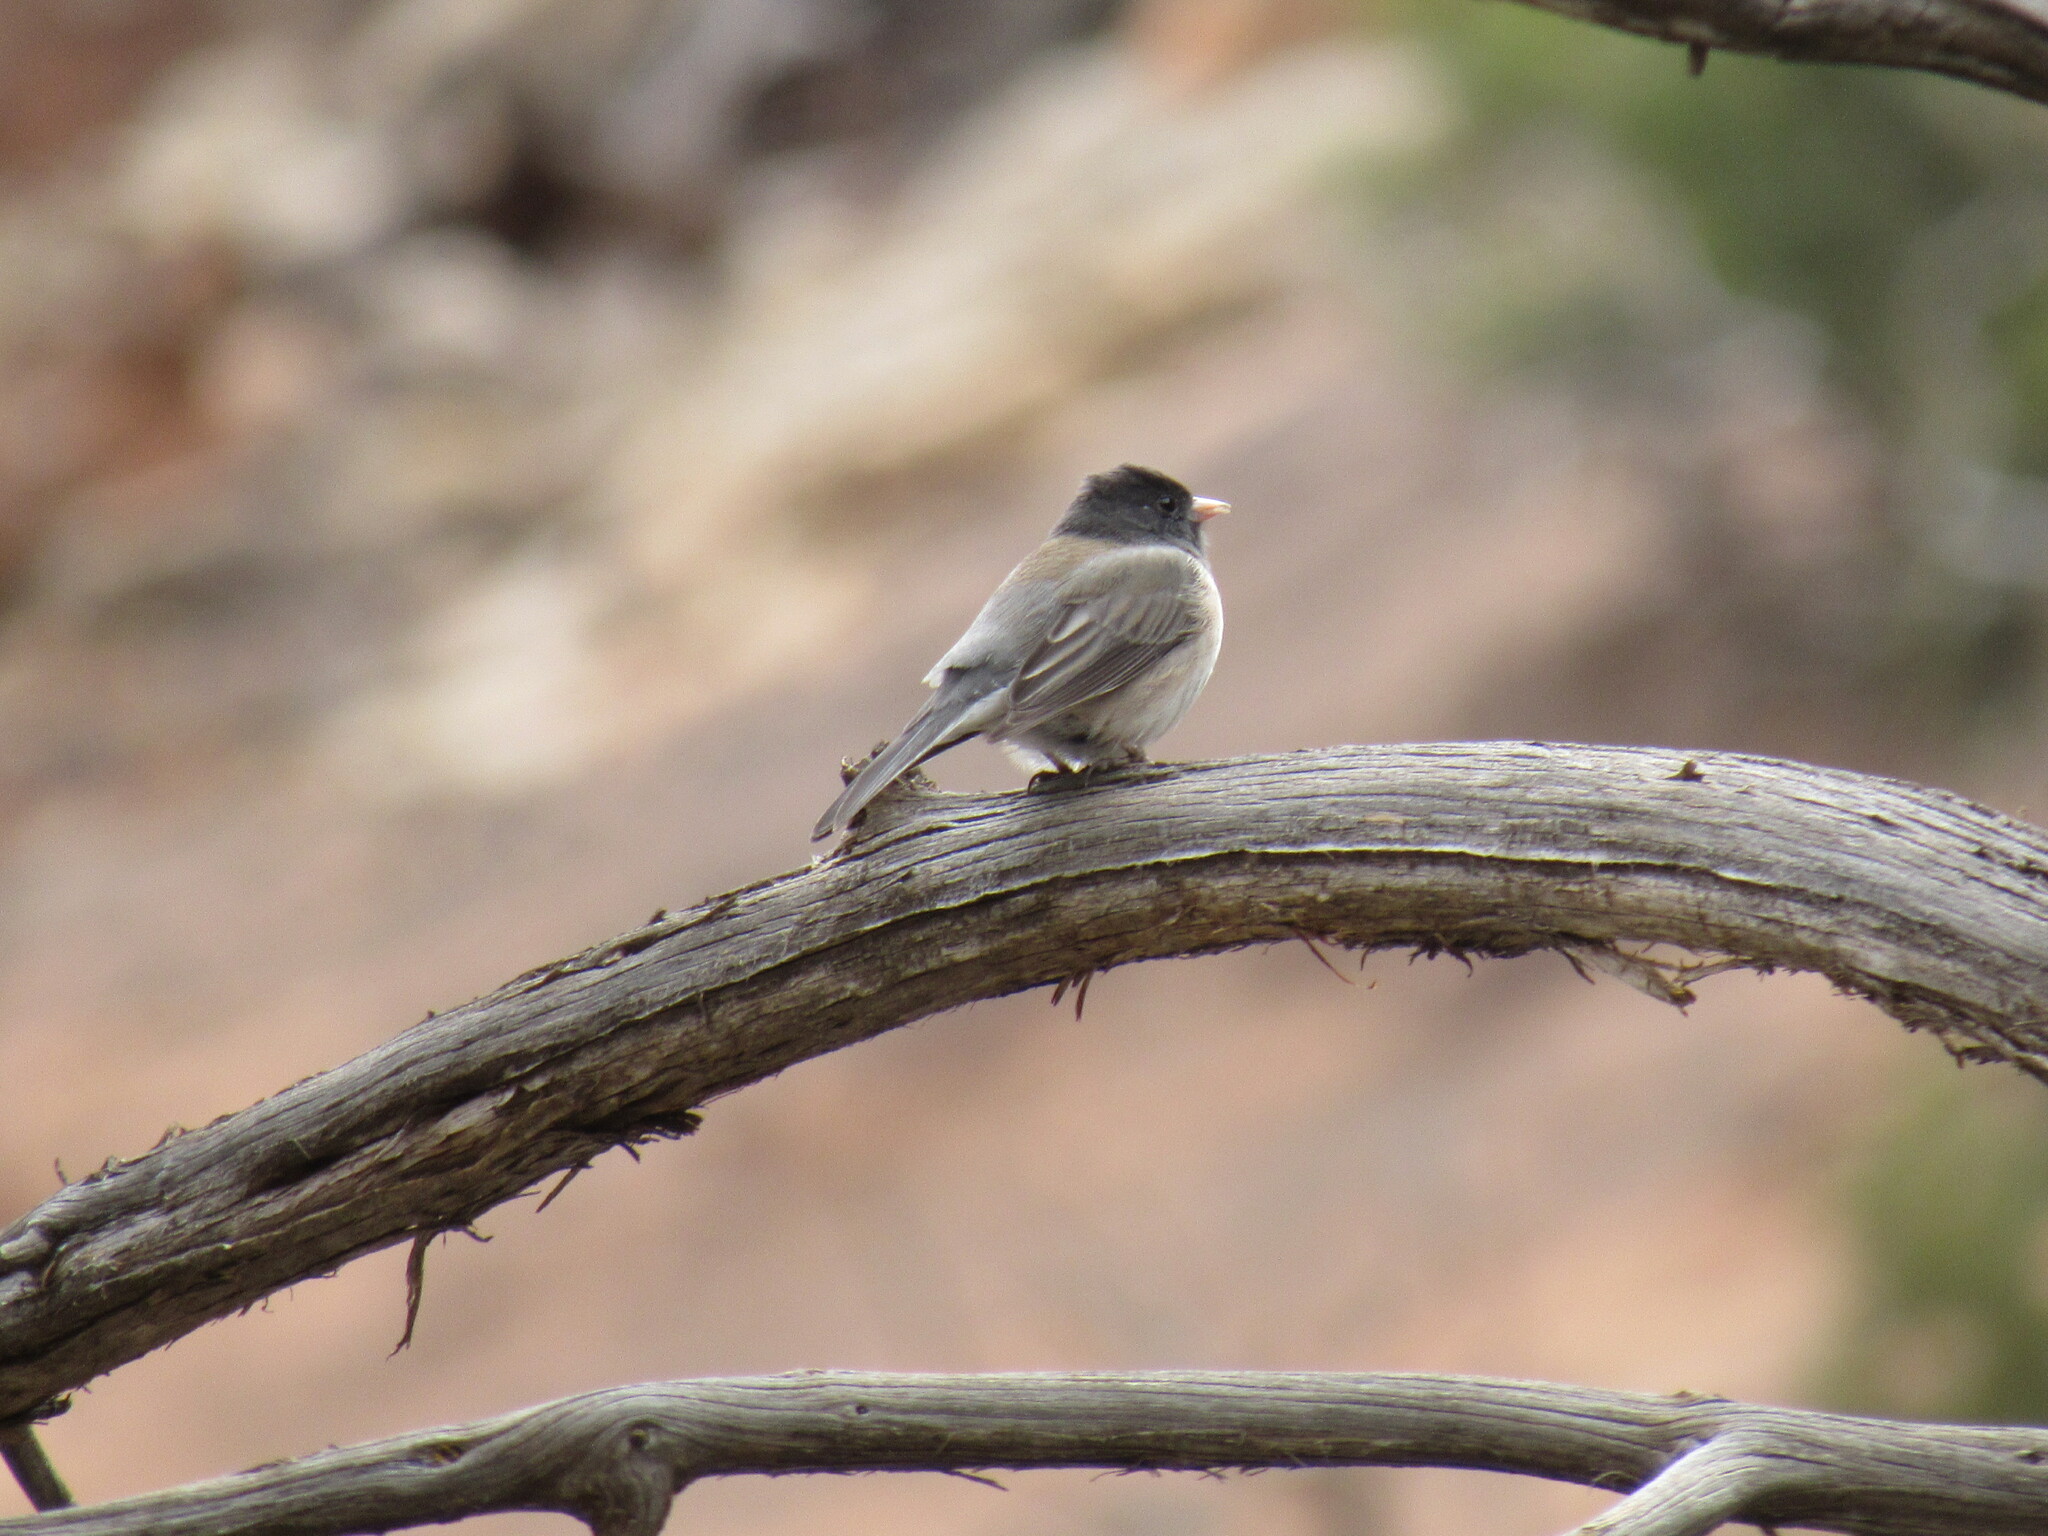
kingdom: Animalia
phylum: Chordata
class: Aves
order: Passeriformes
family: Passerellidae
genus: Junco
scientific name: Junco hyemalis
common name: Dark-eyed junco
